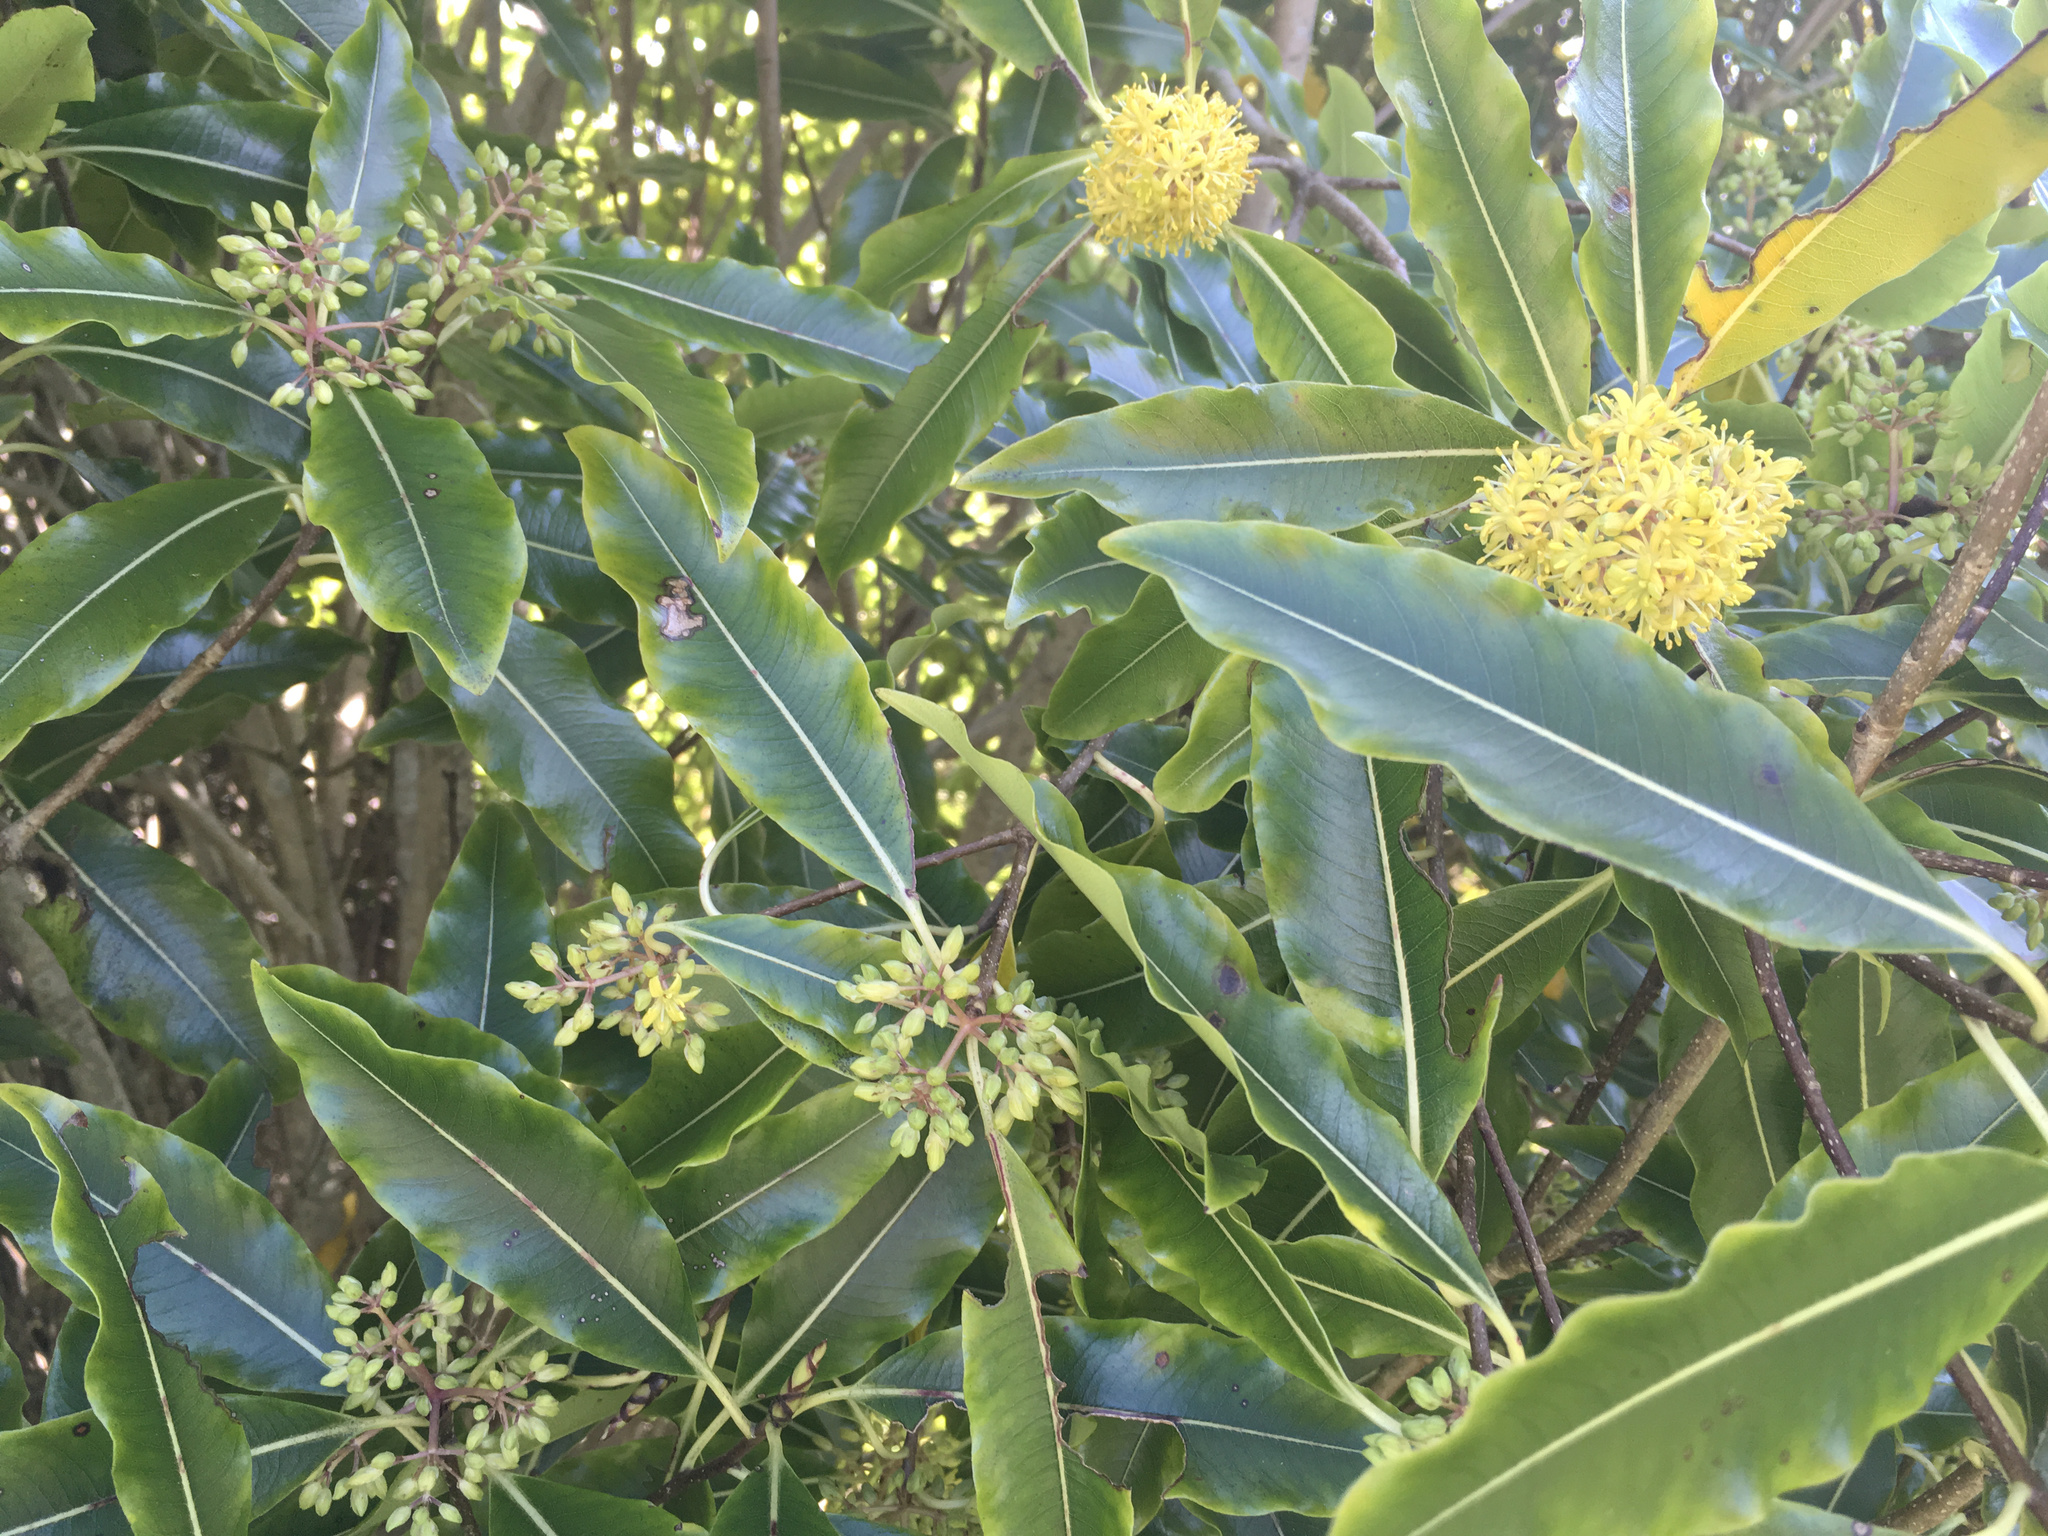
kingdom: Plantae
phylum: Tracheophyta
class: Magnoliopsida
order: Apiales
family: Pittosporaceae
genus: Pittosporum
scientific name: Pittosporum eugenioides
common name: Lemonwood
